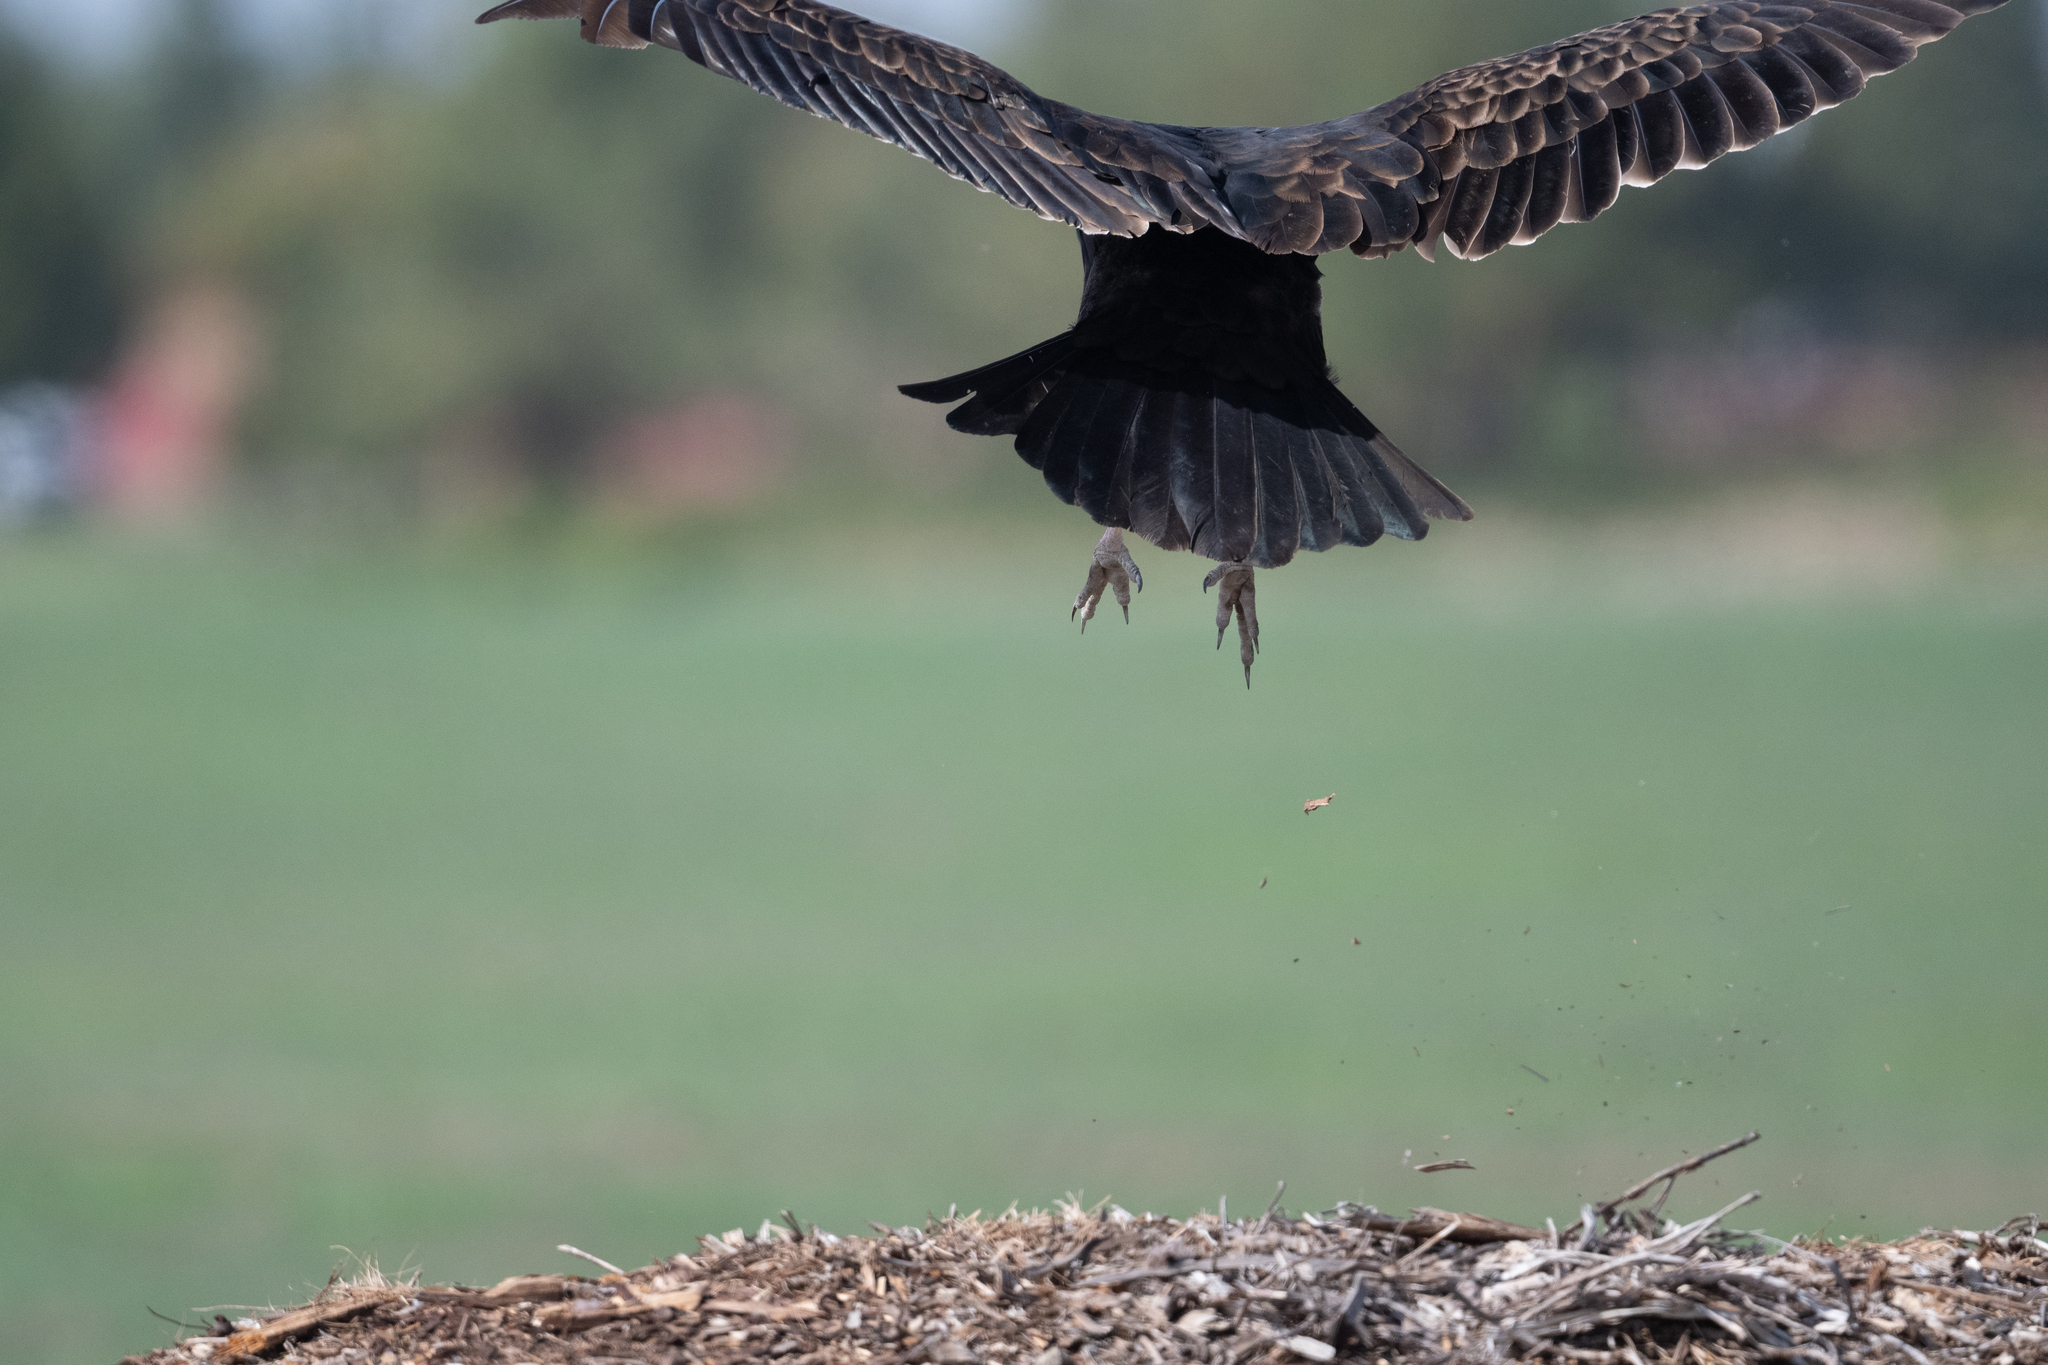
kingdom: Animalia
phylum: Chordata
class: Aves
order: Accipitriformes
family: Cathartidae
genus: Cathartes
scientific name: Cathartes aura
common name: Turkey vulture
